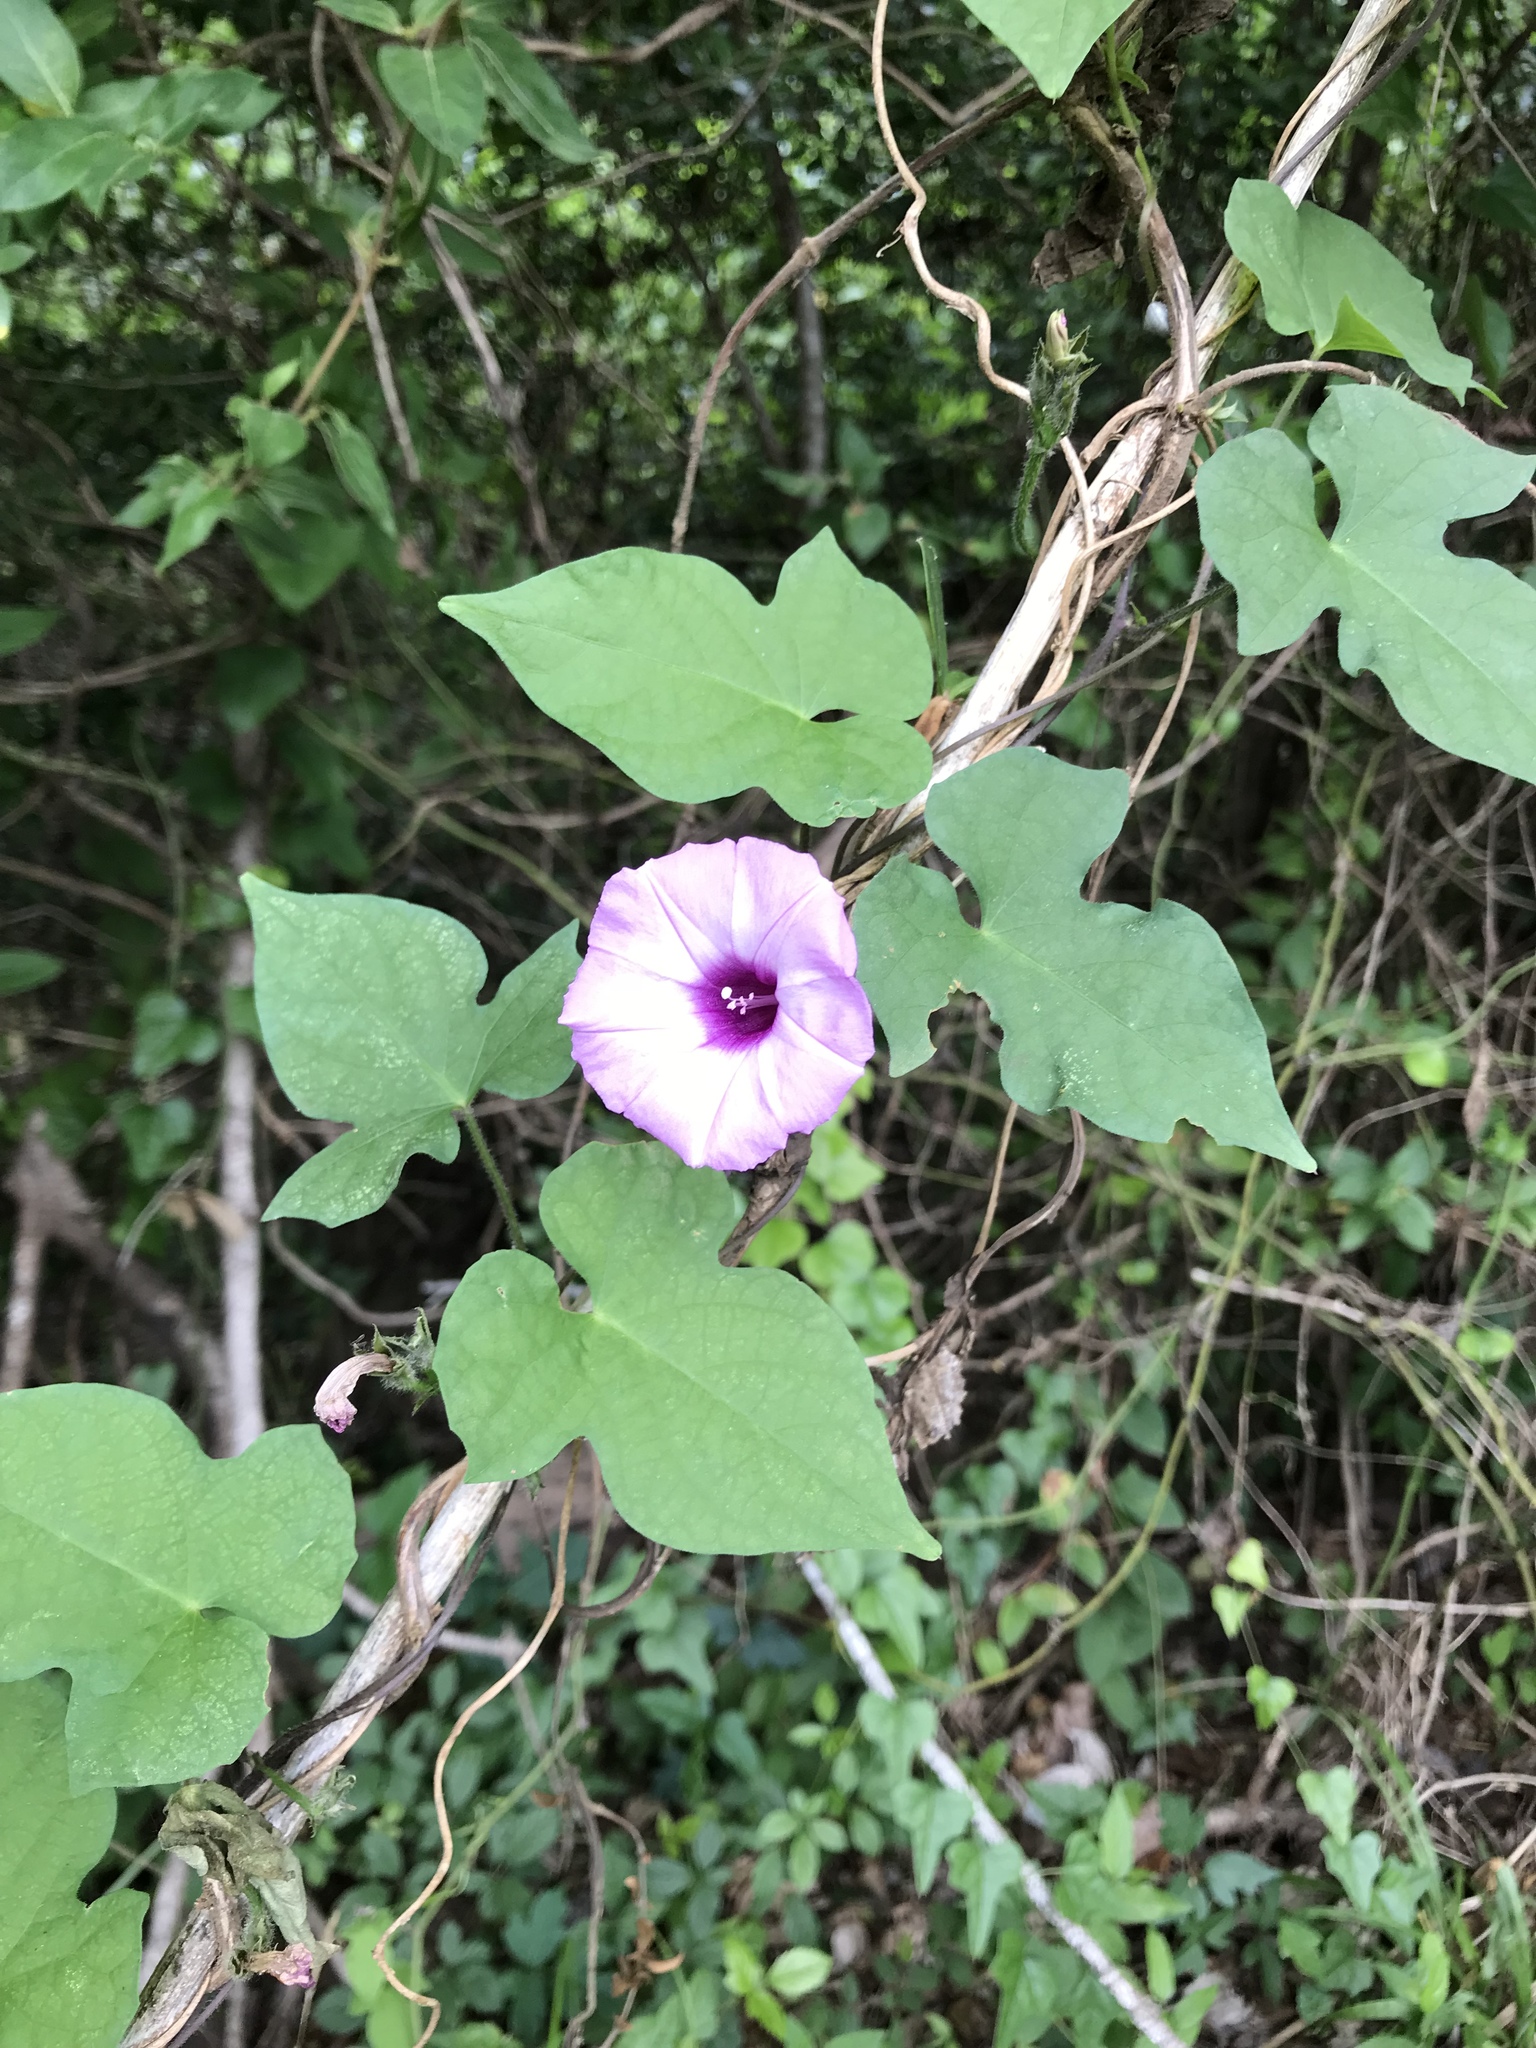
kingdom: Plantae
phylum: Tracheophyta
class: Magnoliopsida
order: Solanales
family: Convolvulaceae
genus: Ipomoea
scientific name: Ipomoea cordatotriloba
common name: Cotton morning glory
